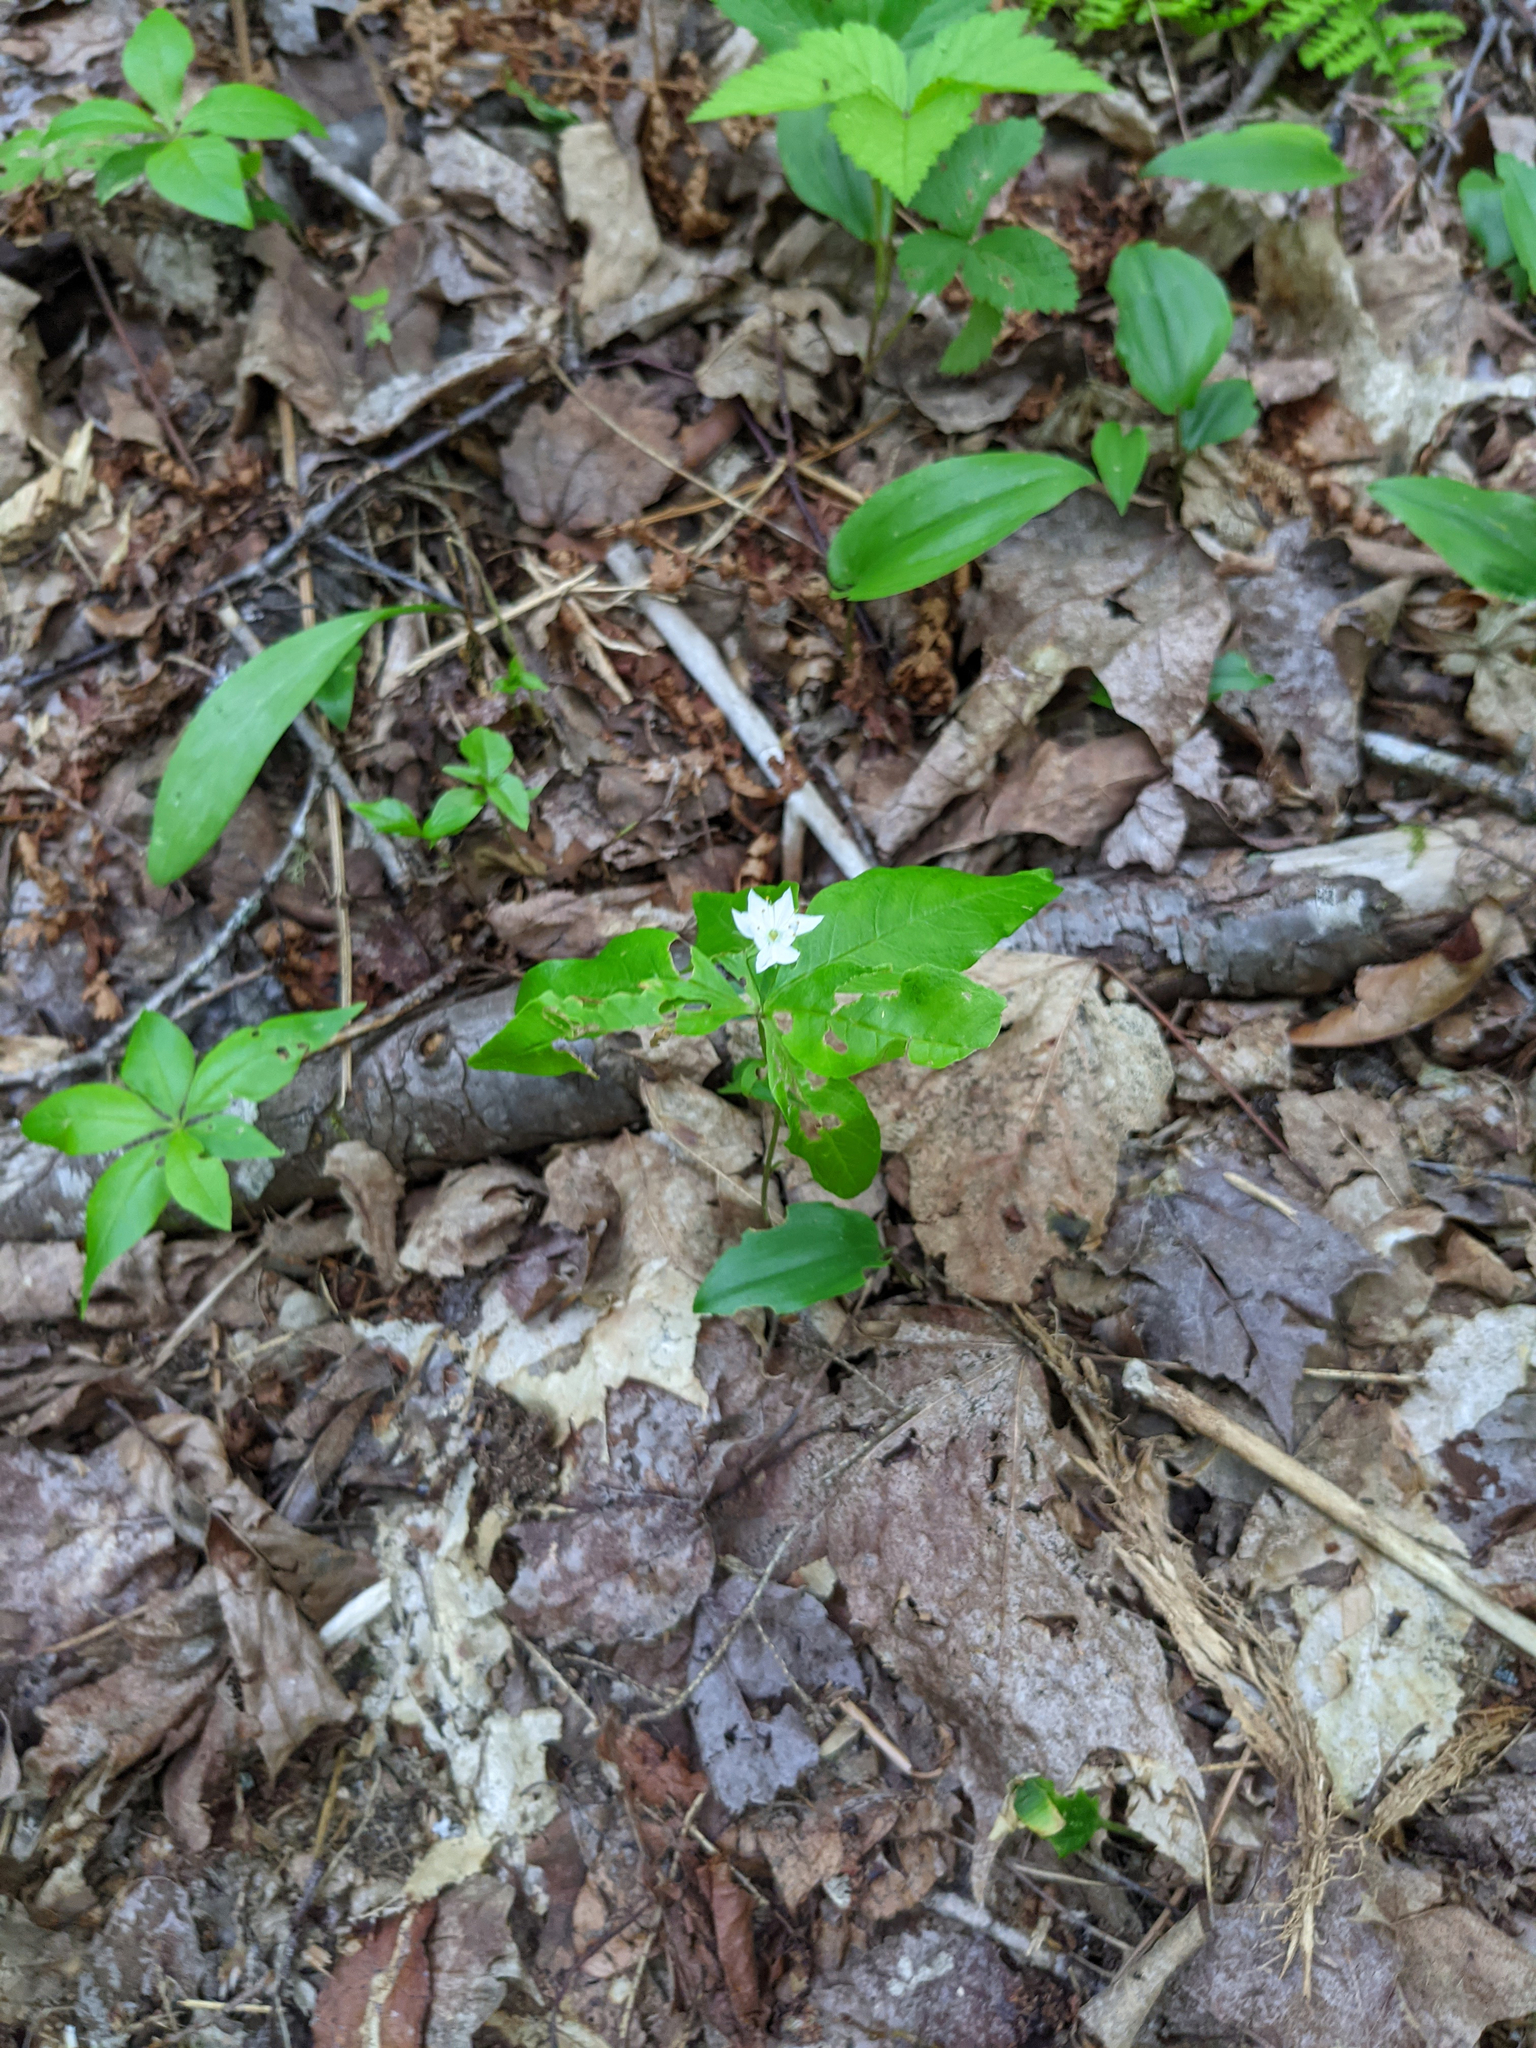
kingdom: Plantae
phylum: Tracheophyta
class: Magnoliopsida
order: Ericales
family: Primulaceae
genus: Lysimachia
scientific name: Lysimachia borealis
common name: American starflower
